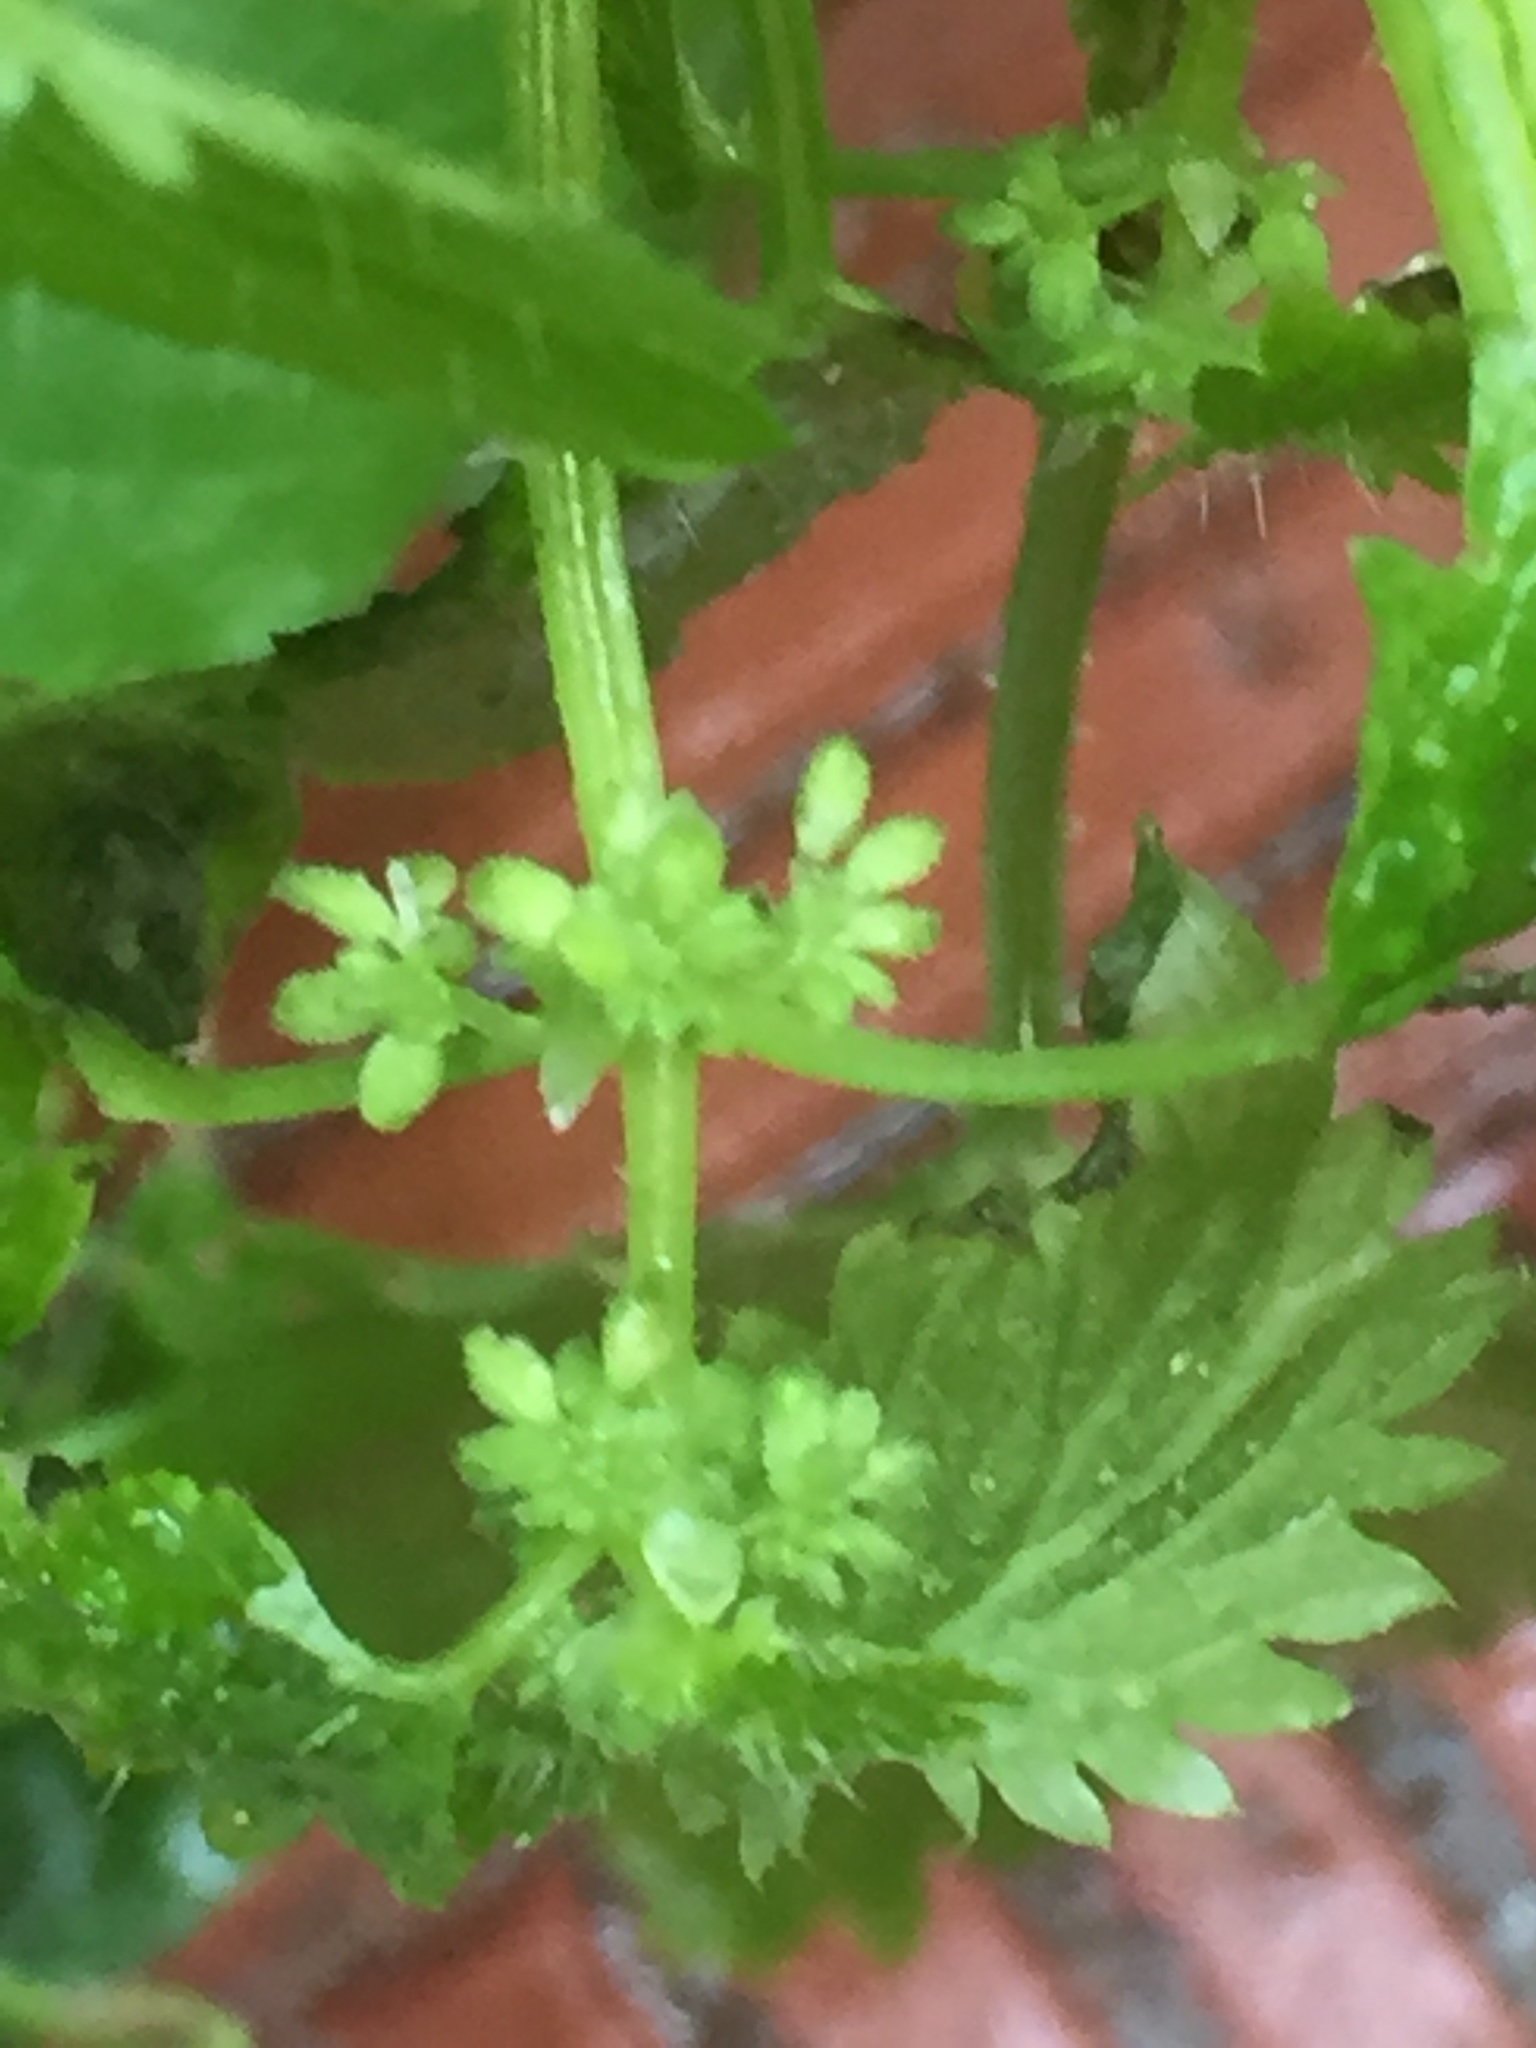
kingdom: Plantae
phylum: Tracheophyta
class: Magnoliopsida
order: Rosales
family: Urticaceae
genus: Urtica
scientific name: Urtica urens
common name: Dwarf nettle
